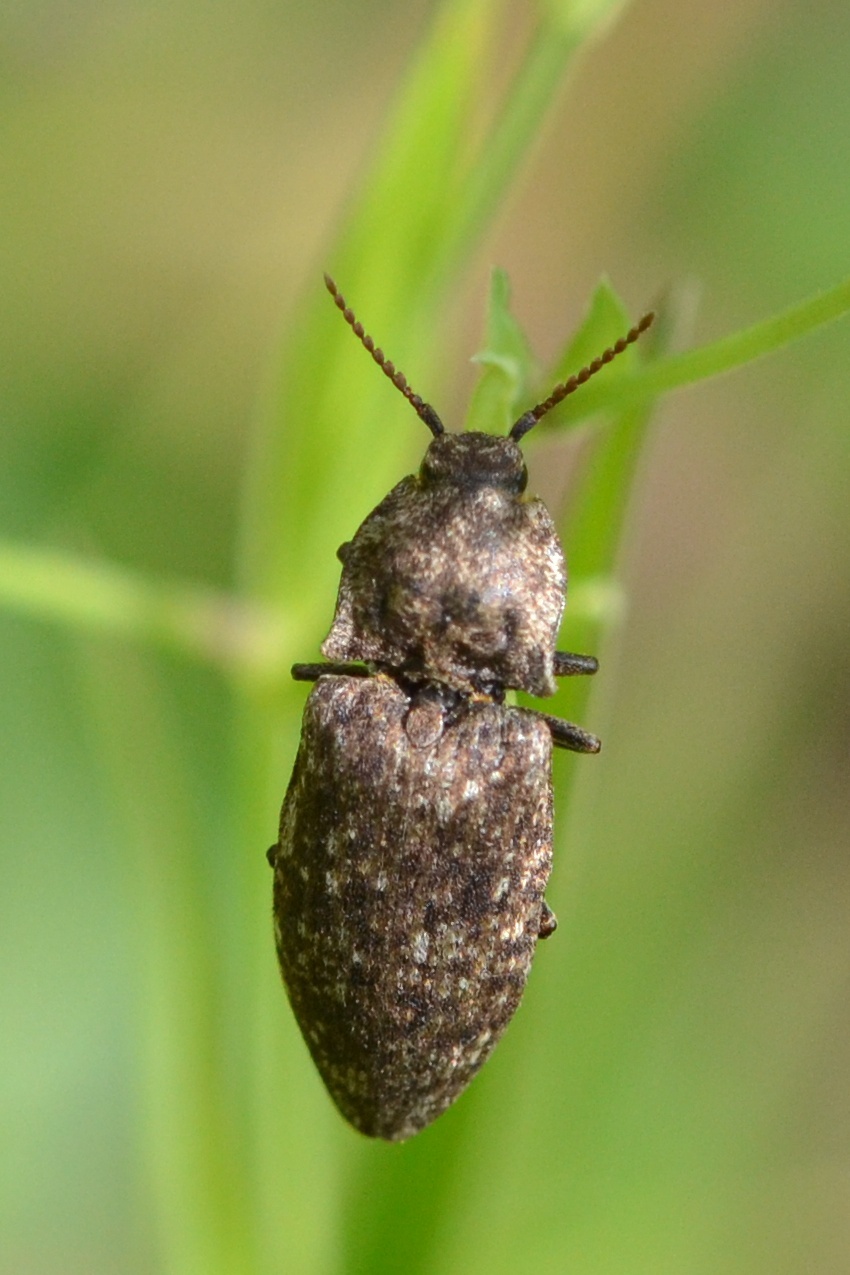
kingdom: Animalia
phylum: Arthropoda
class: Insecta
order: Coleoptera
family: Elateridae
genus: Agrypnus
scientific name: Agrypnus murinus
